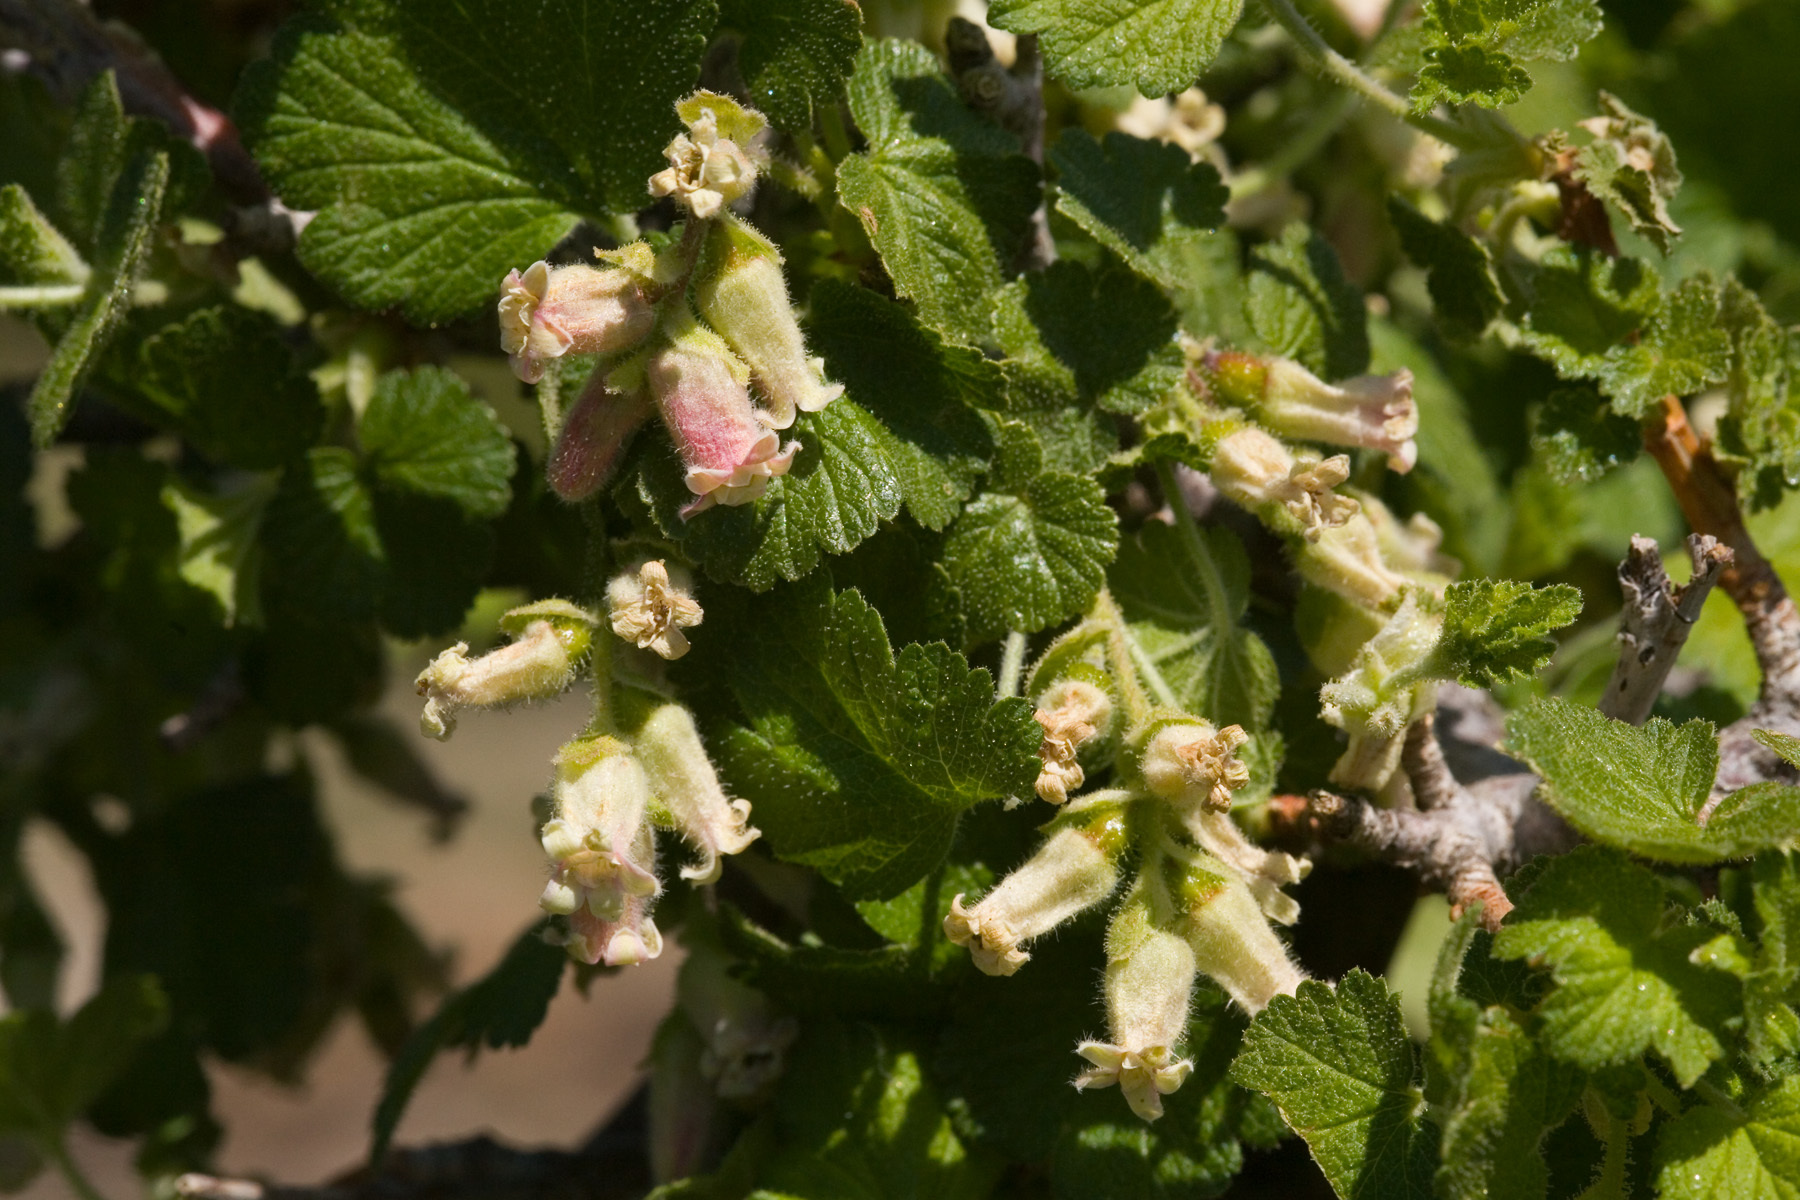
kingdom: Plantae
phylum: Tracheophyta
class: Magnoliopsida
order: Saxifragales
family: Grossulariaceae
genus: Ribes
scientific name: Ribes mescalerium
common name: Southwestern black currant
